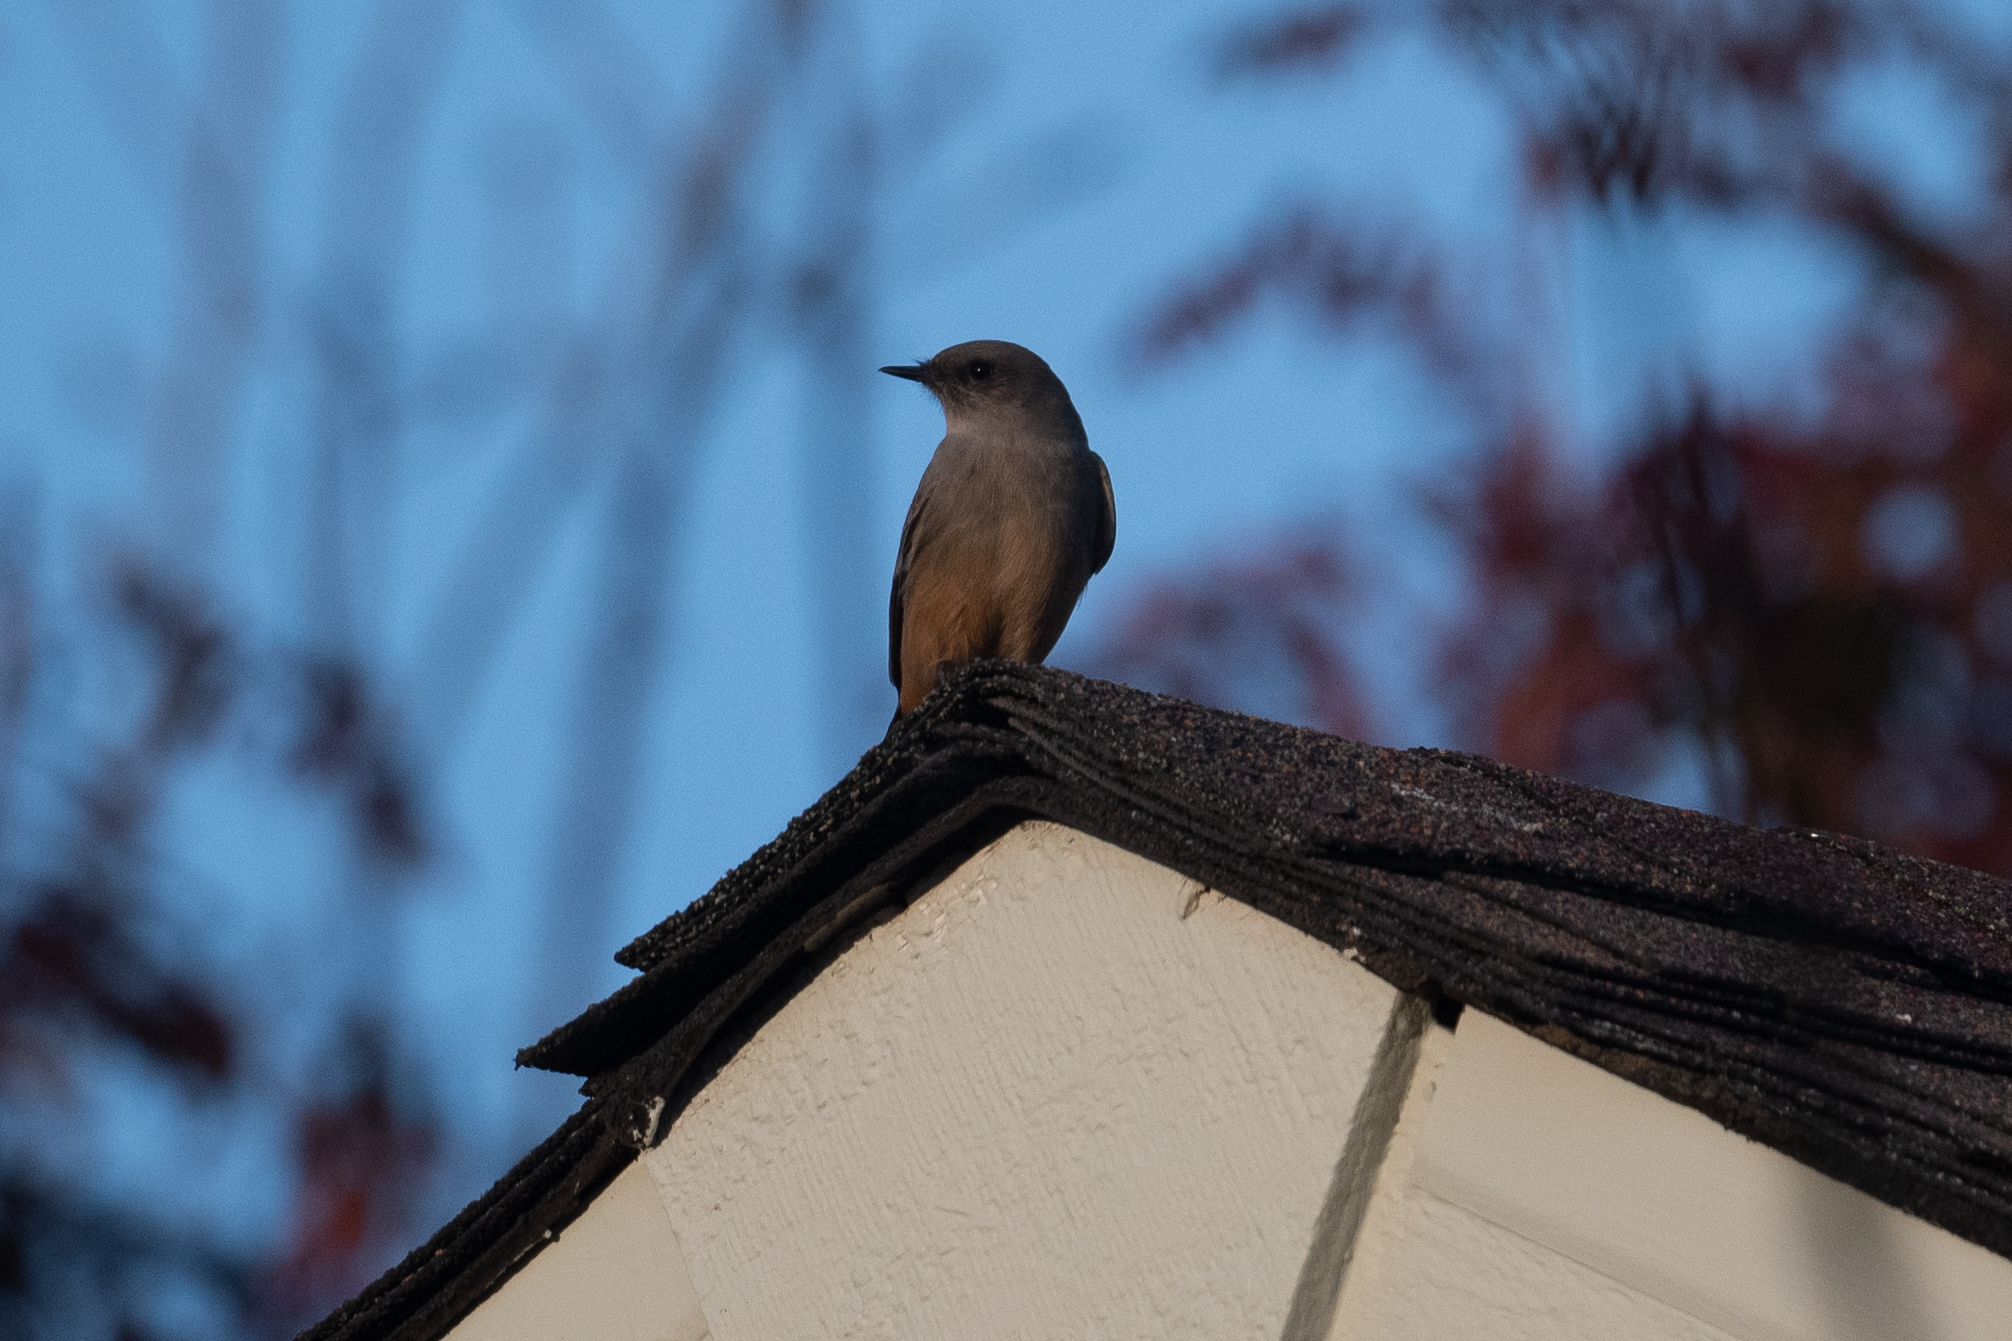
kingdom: Animalia
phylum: Chordata
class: Aves
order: Passeriformes
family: Tyrannidae
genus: Sayornis
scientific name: Sayornis saya
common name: Say's phoebe
